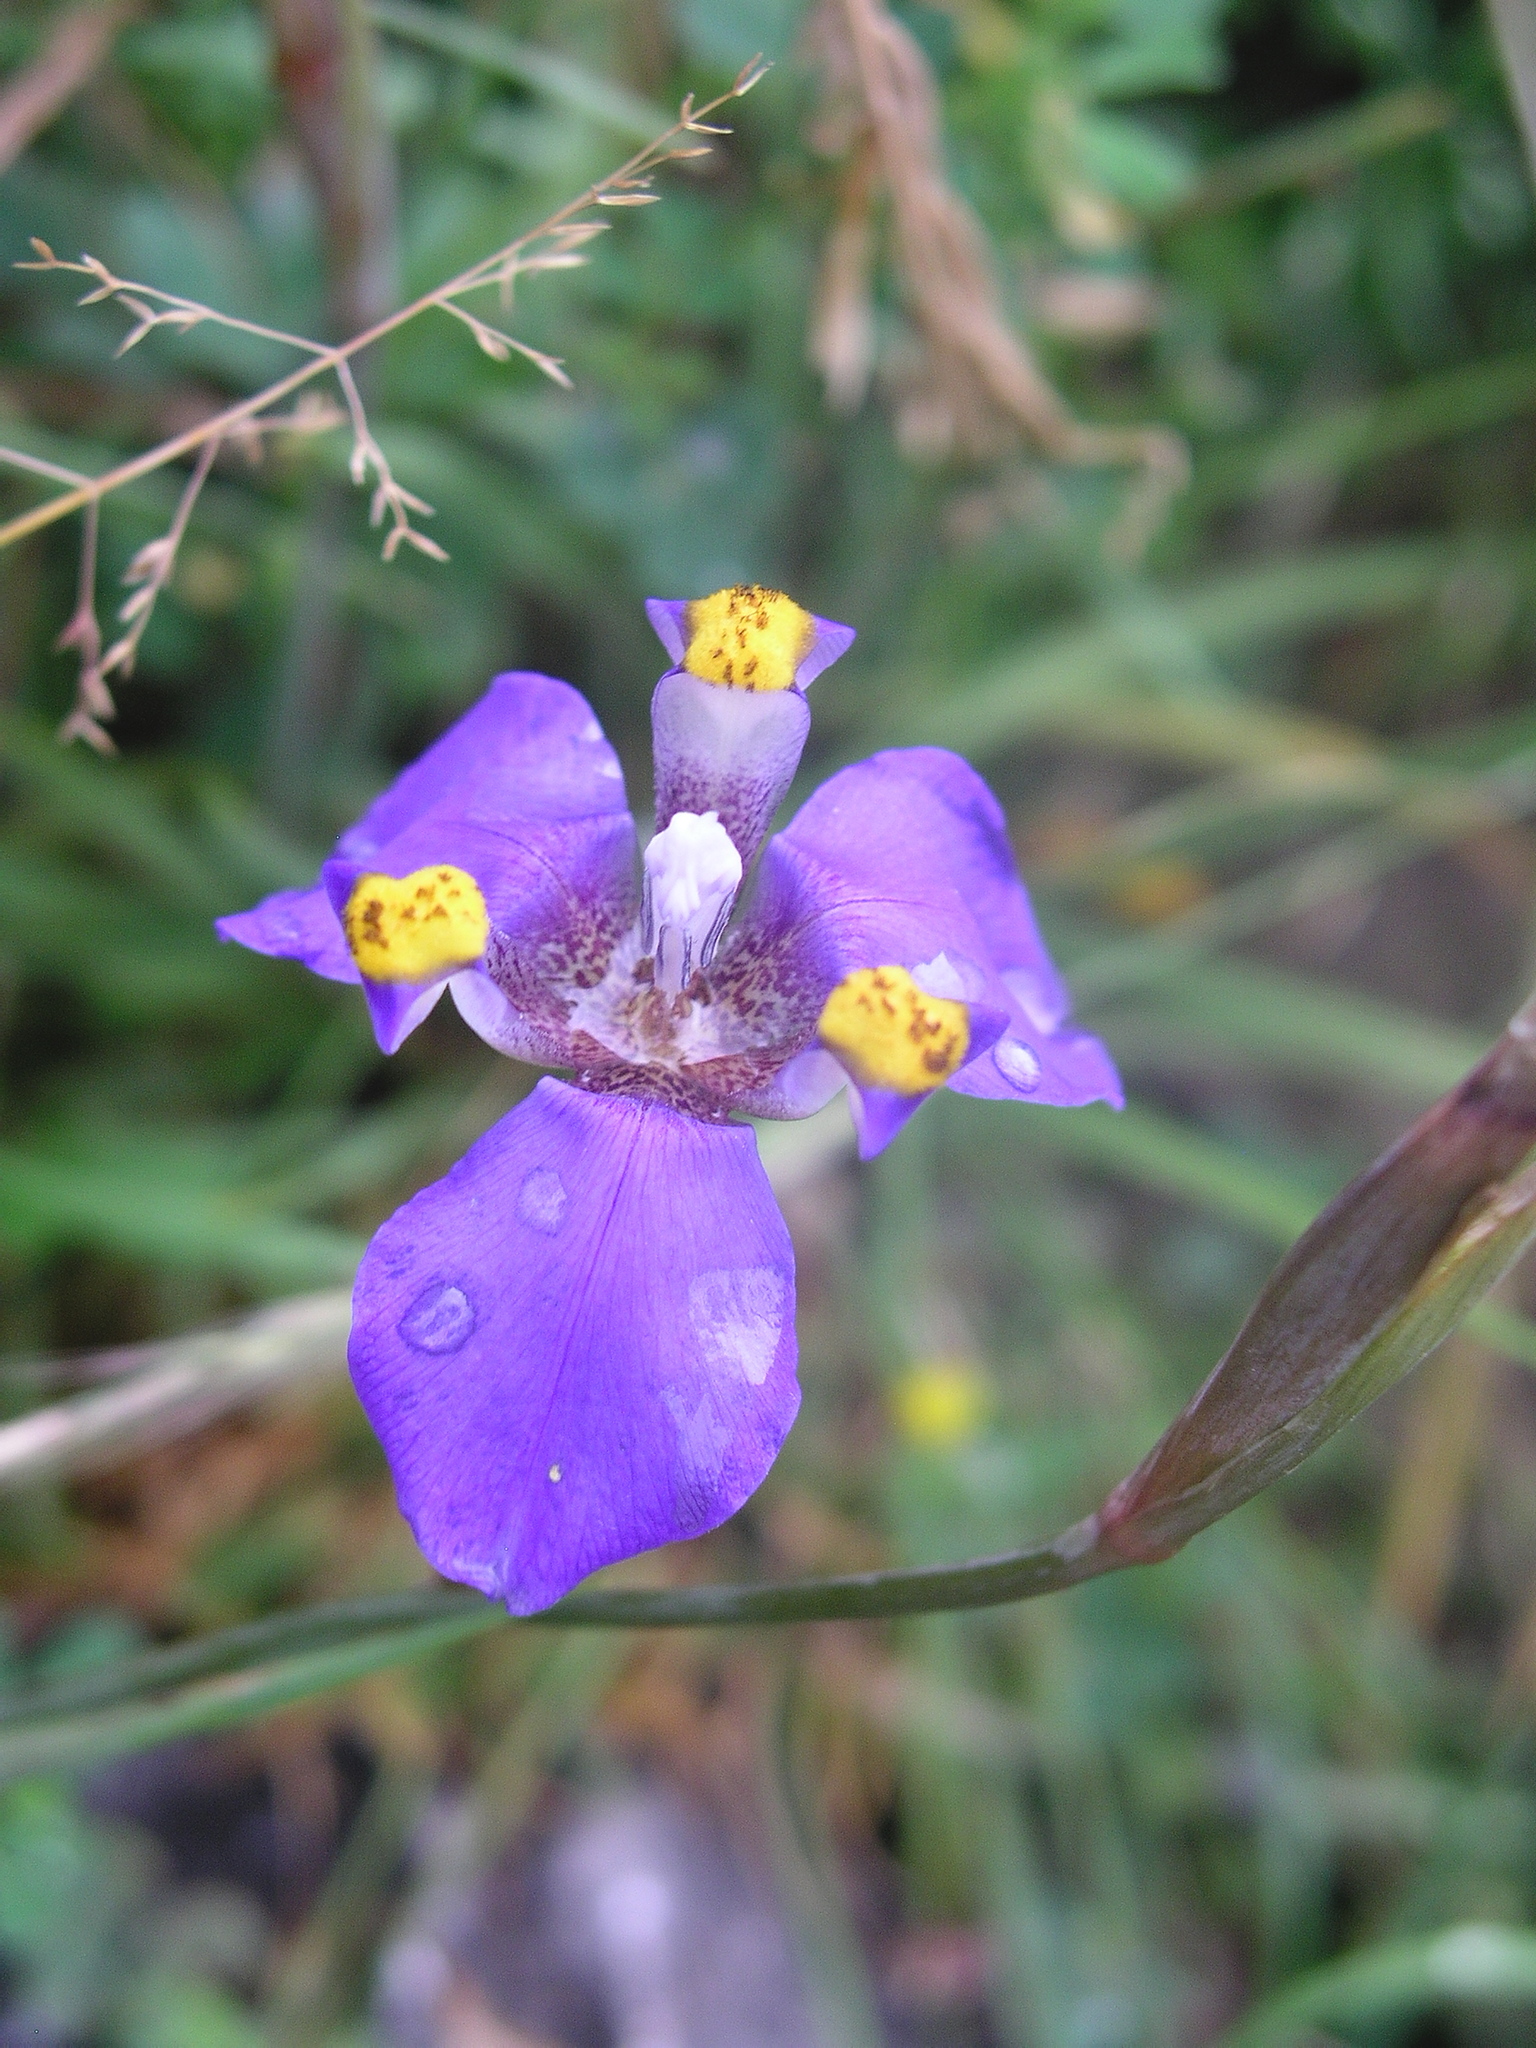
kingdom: Plantae
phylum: Tracheophyta
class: Liliopsida
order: Asparagales
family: Iridaceae
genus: Hesperoxiphion
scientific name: Hesperoxiphion herrerae
